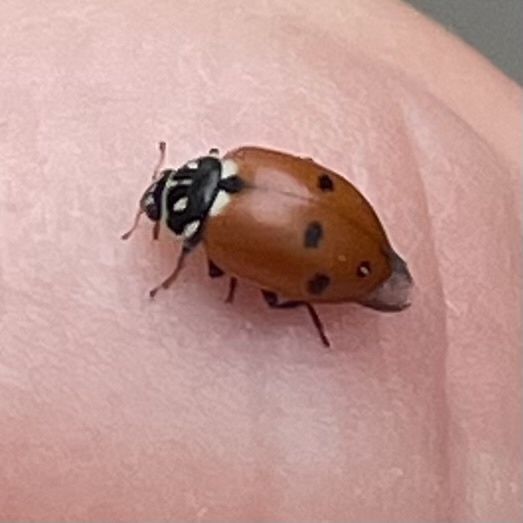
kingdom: Animalia
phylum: Arthropoda
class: Insecta
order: Coleoptera
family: Coccinellidae
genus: Hippodamia
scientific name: Hippodamia variegata
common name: Ladybird beetle
